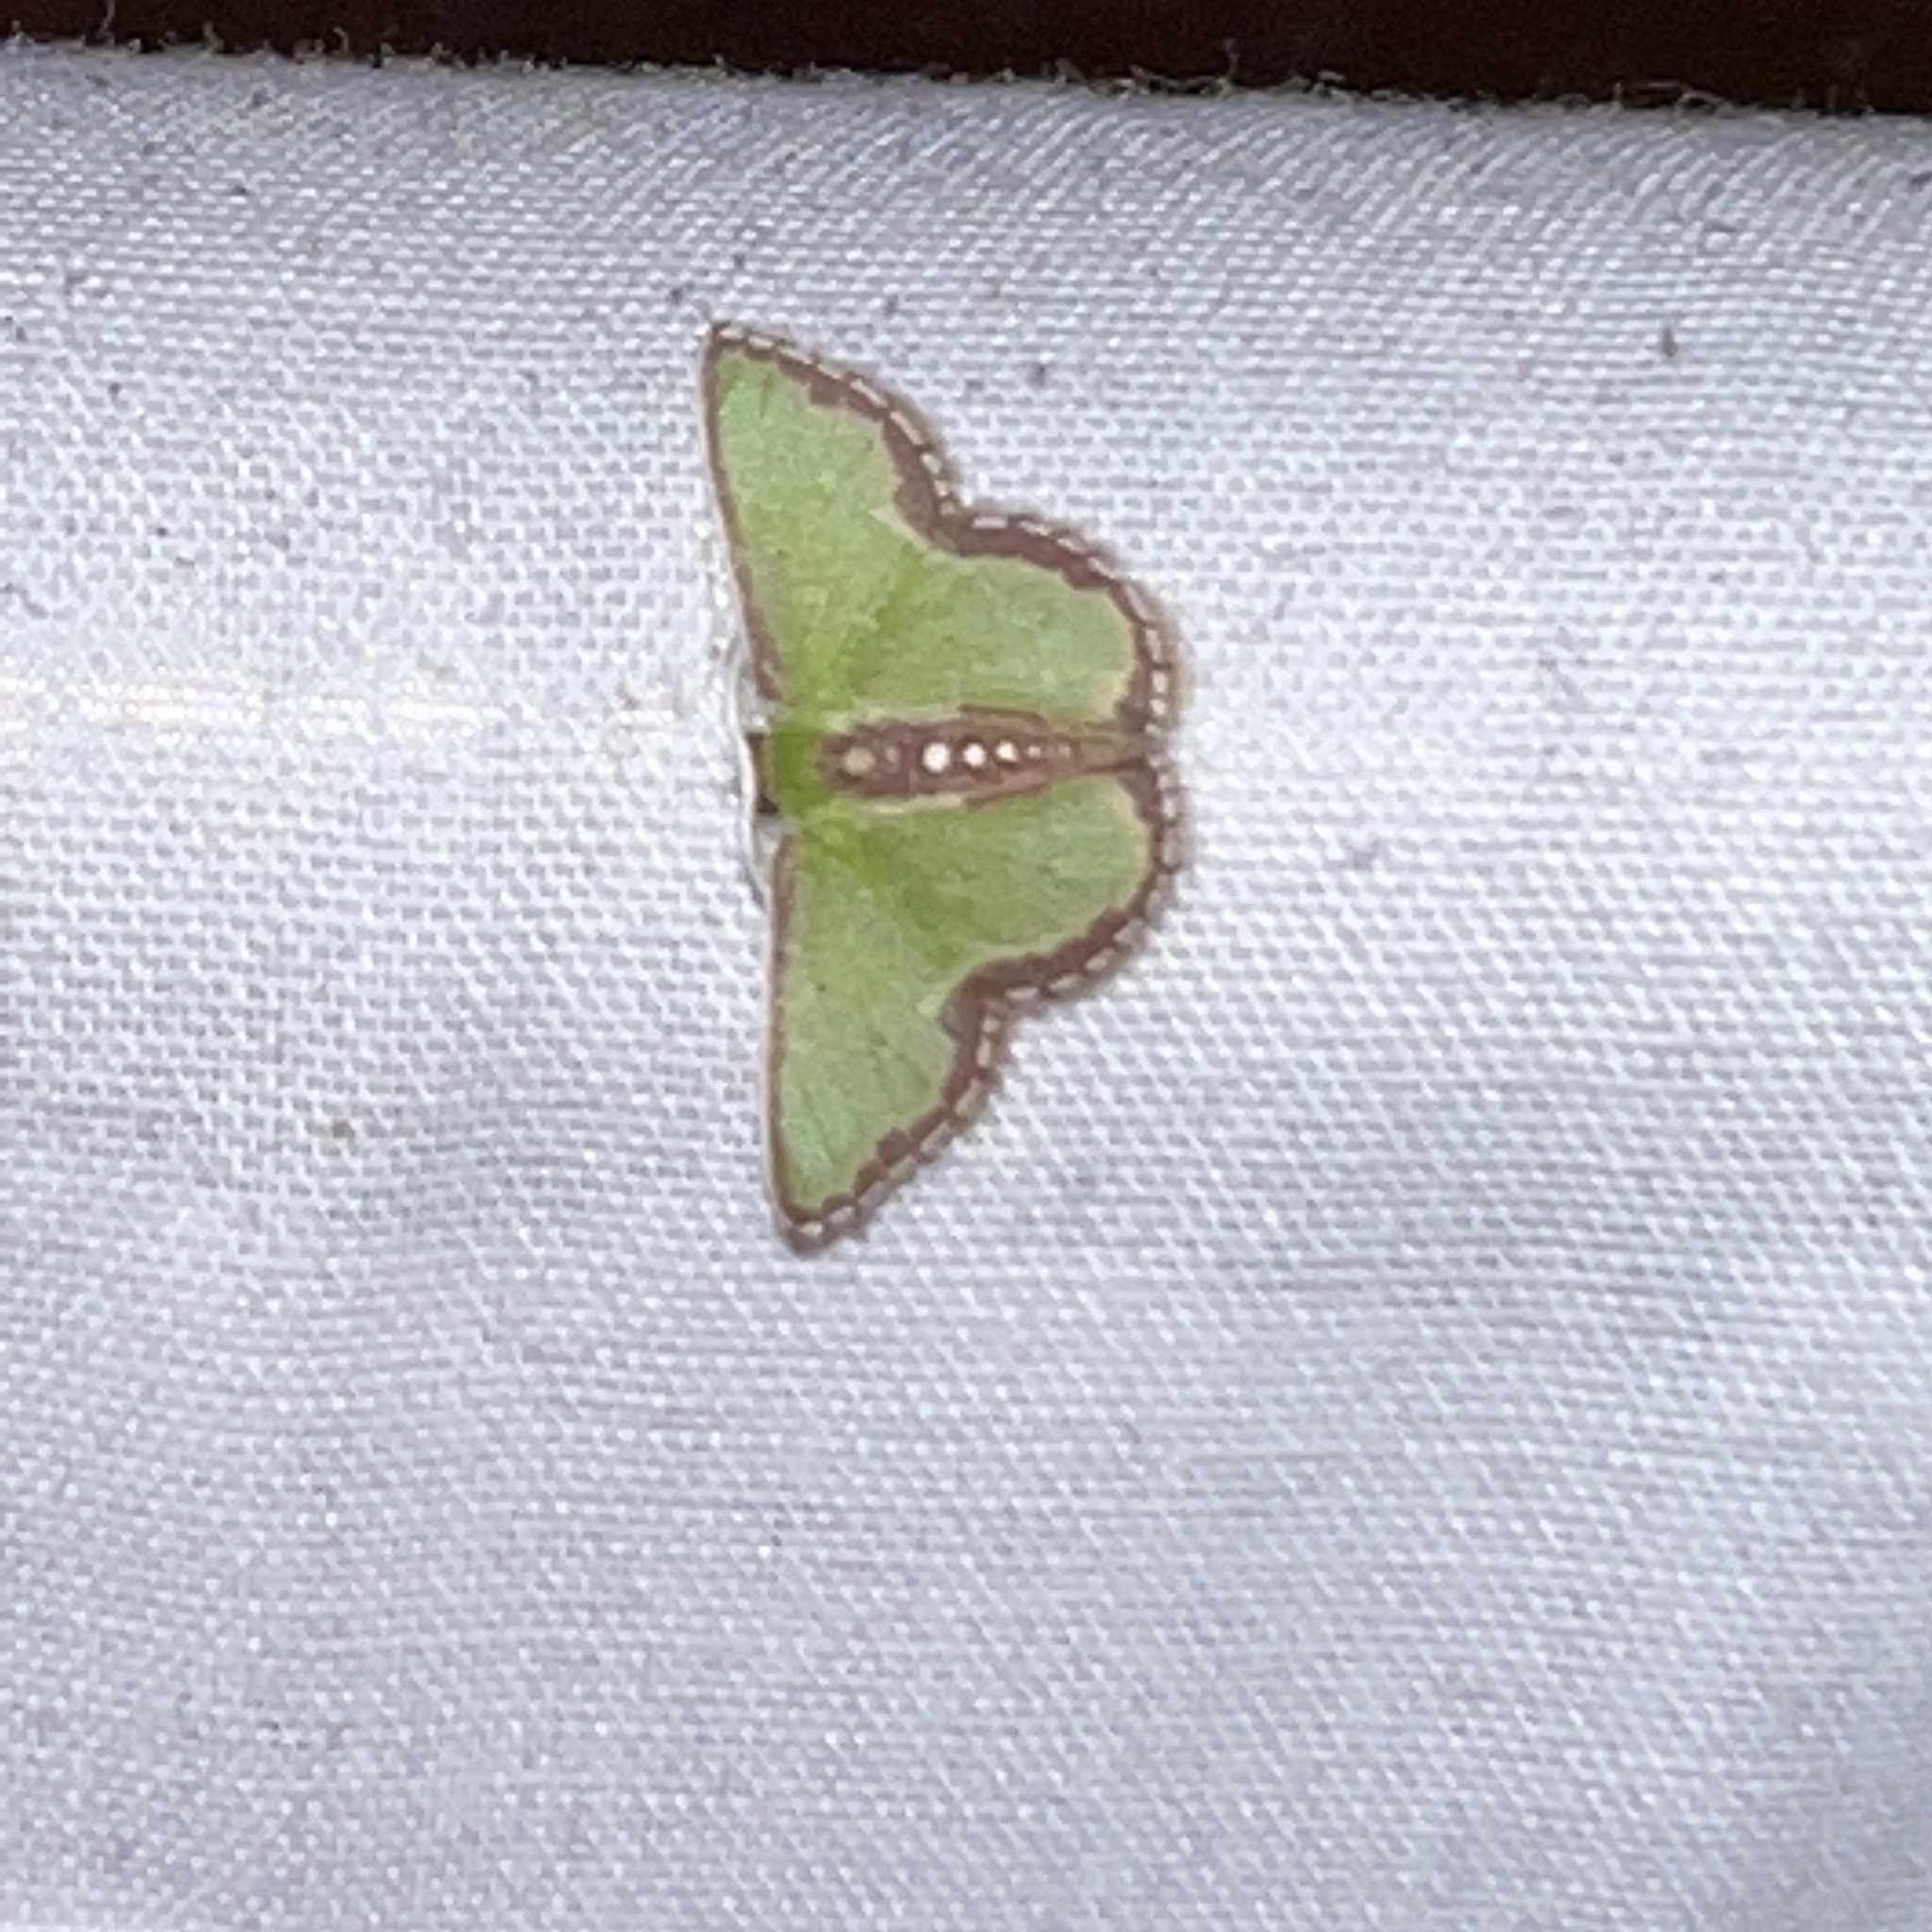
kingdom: Animalia
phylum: Arthropoda
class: Insecta
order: Lepidoptera
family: Geometridae
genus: Synchlora
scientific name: Synchlora expulsata
